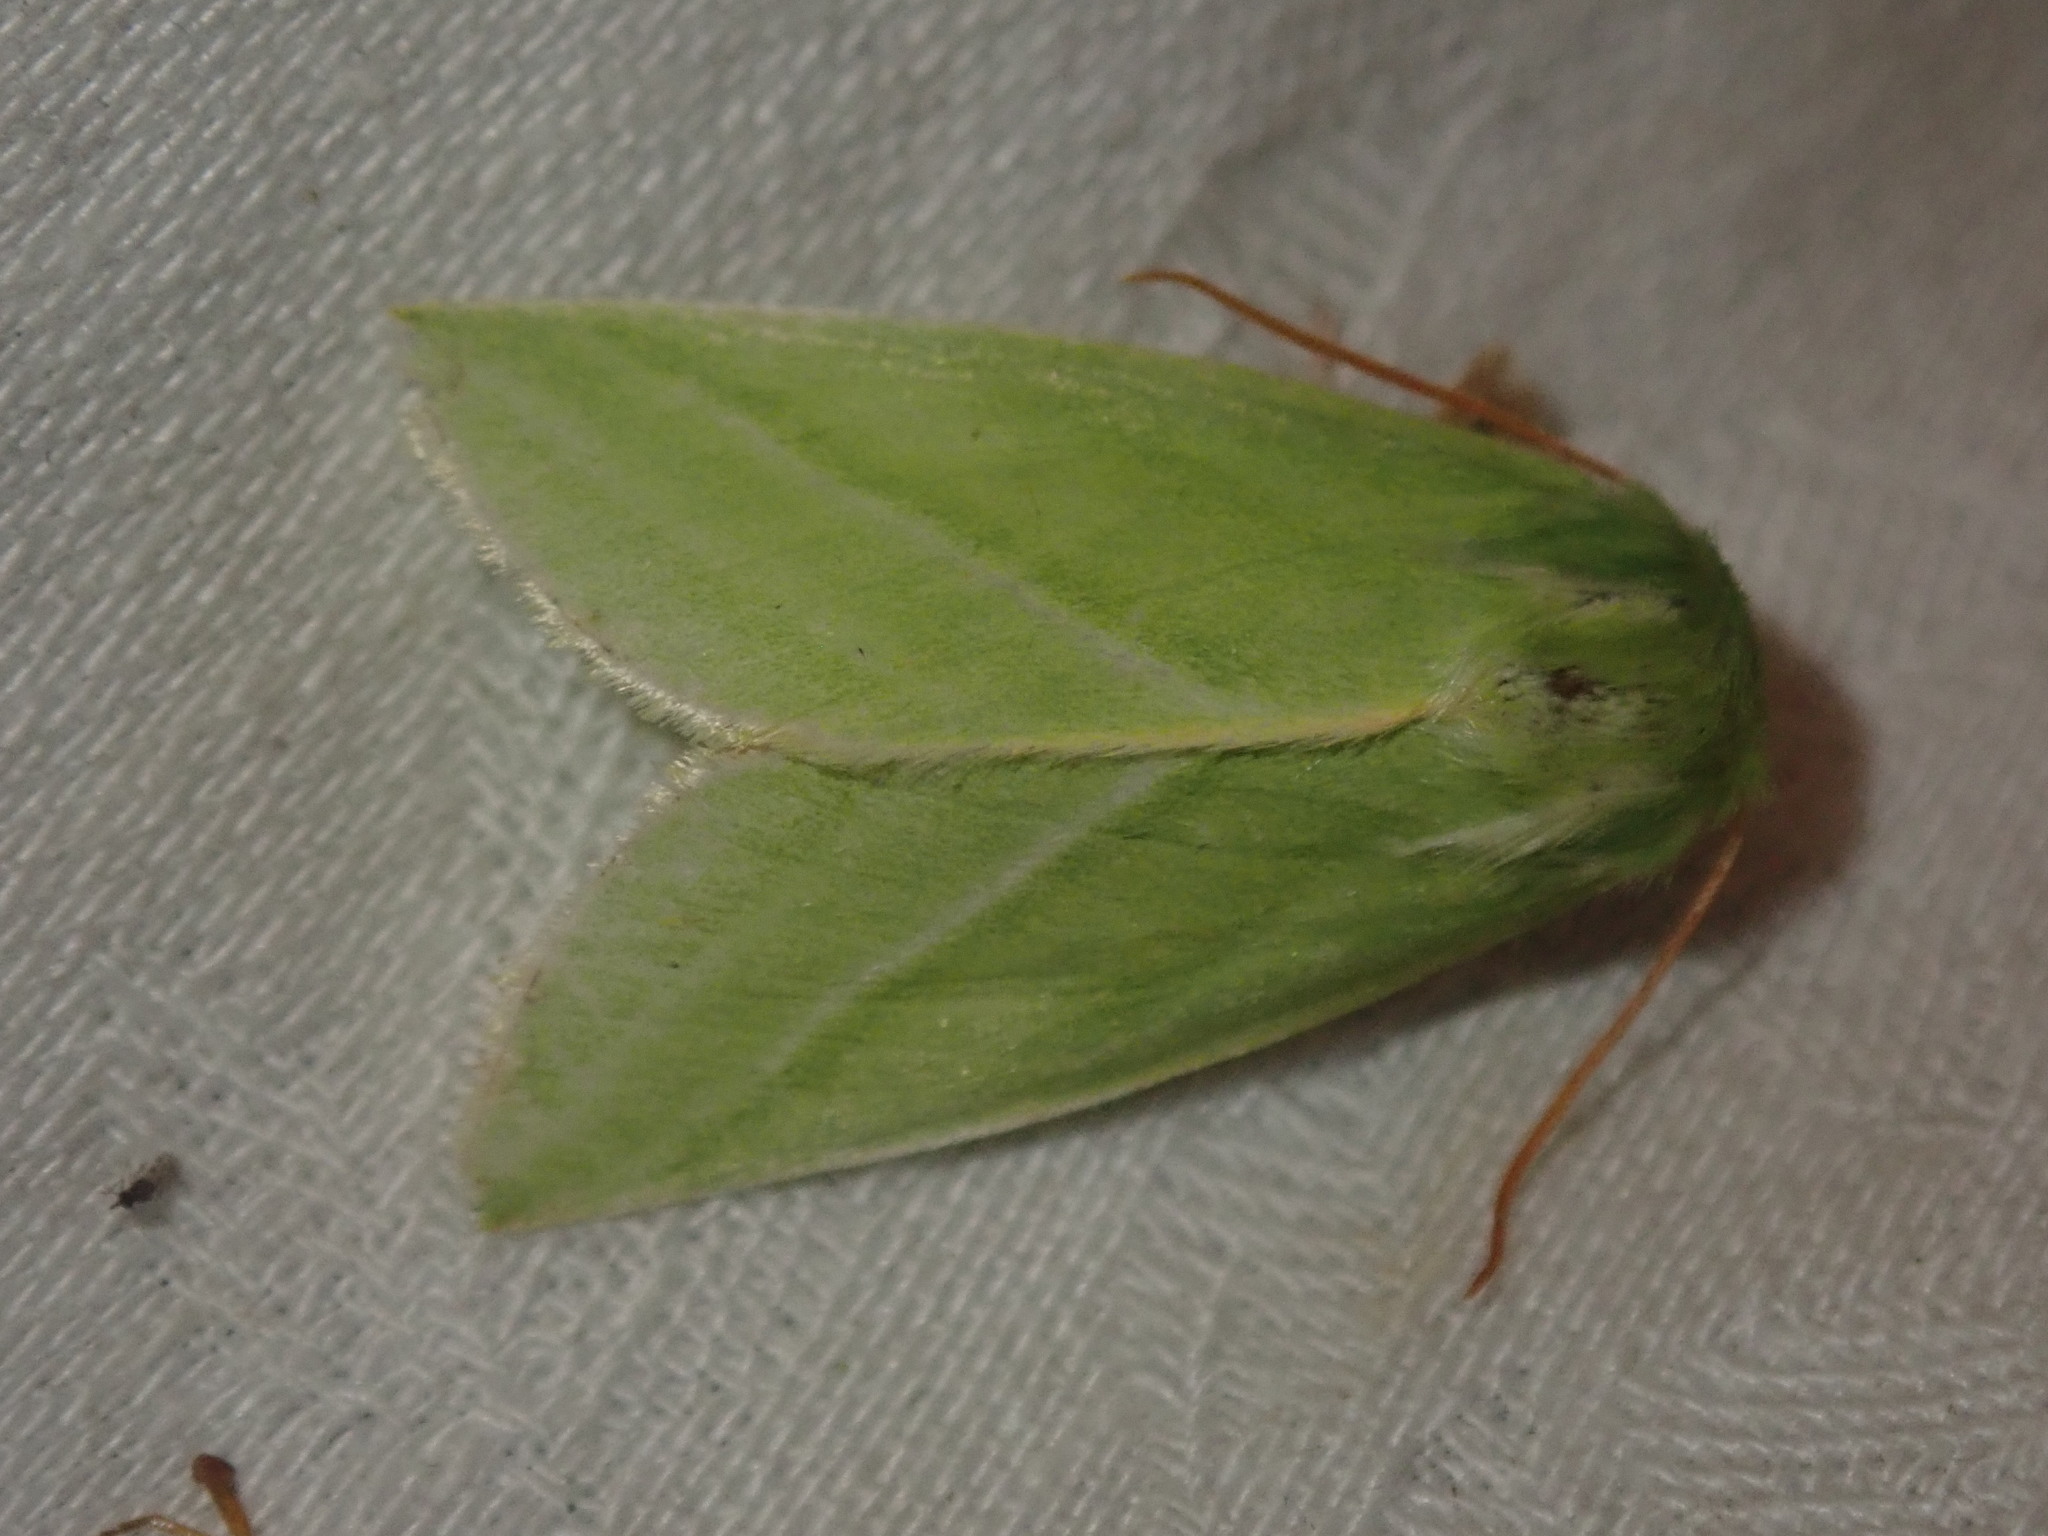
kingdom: Animalia
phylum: Arthropoda
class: Insecta
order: Lepidoptera
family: Nolidae
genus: Pseudoips
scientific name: Pseudoips prasinana
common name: Green silver-lines
